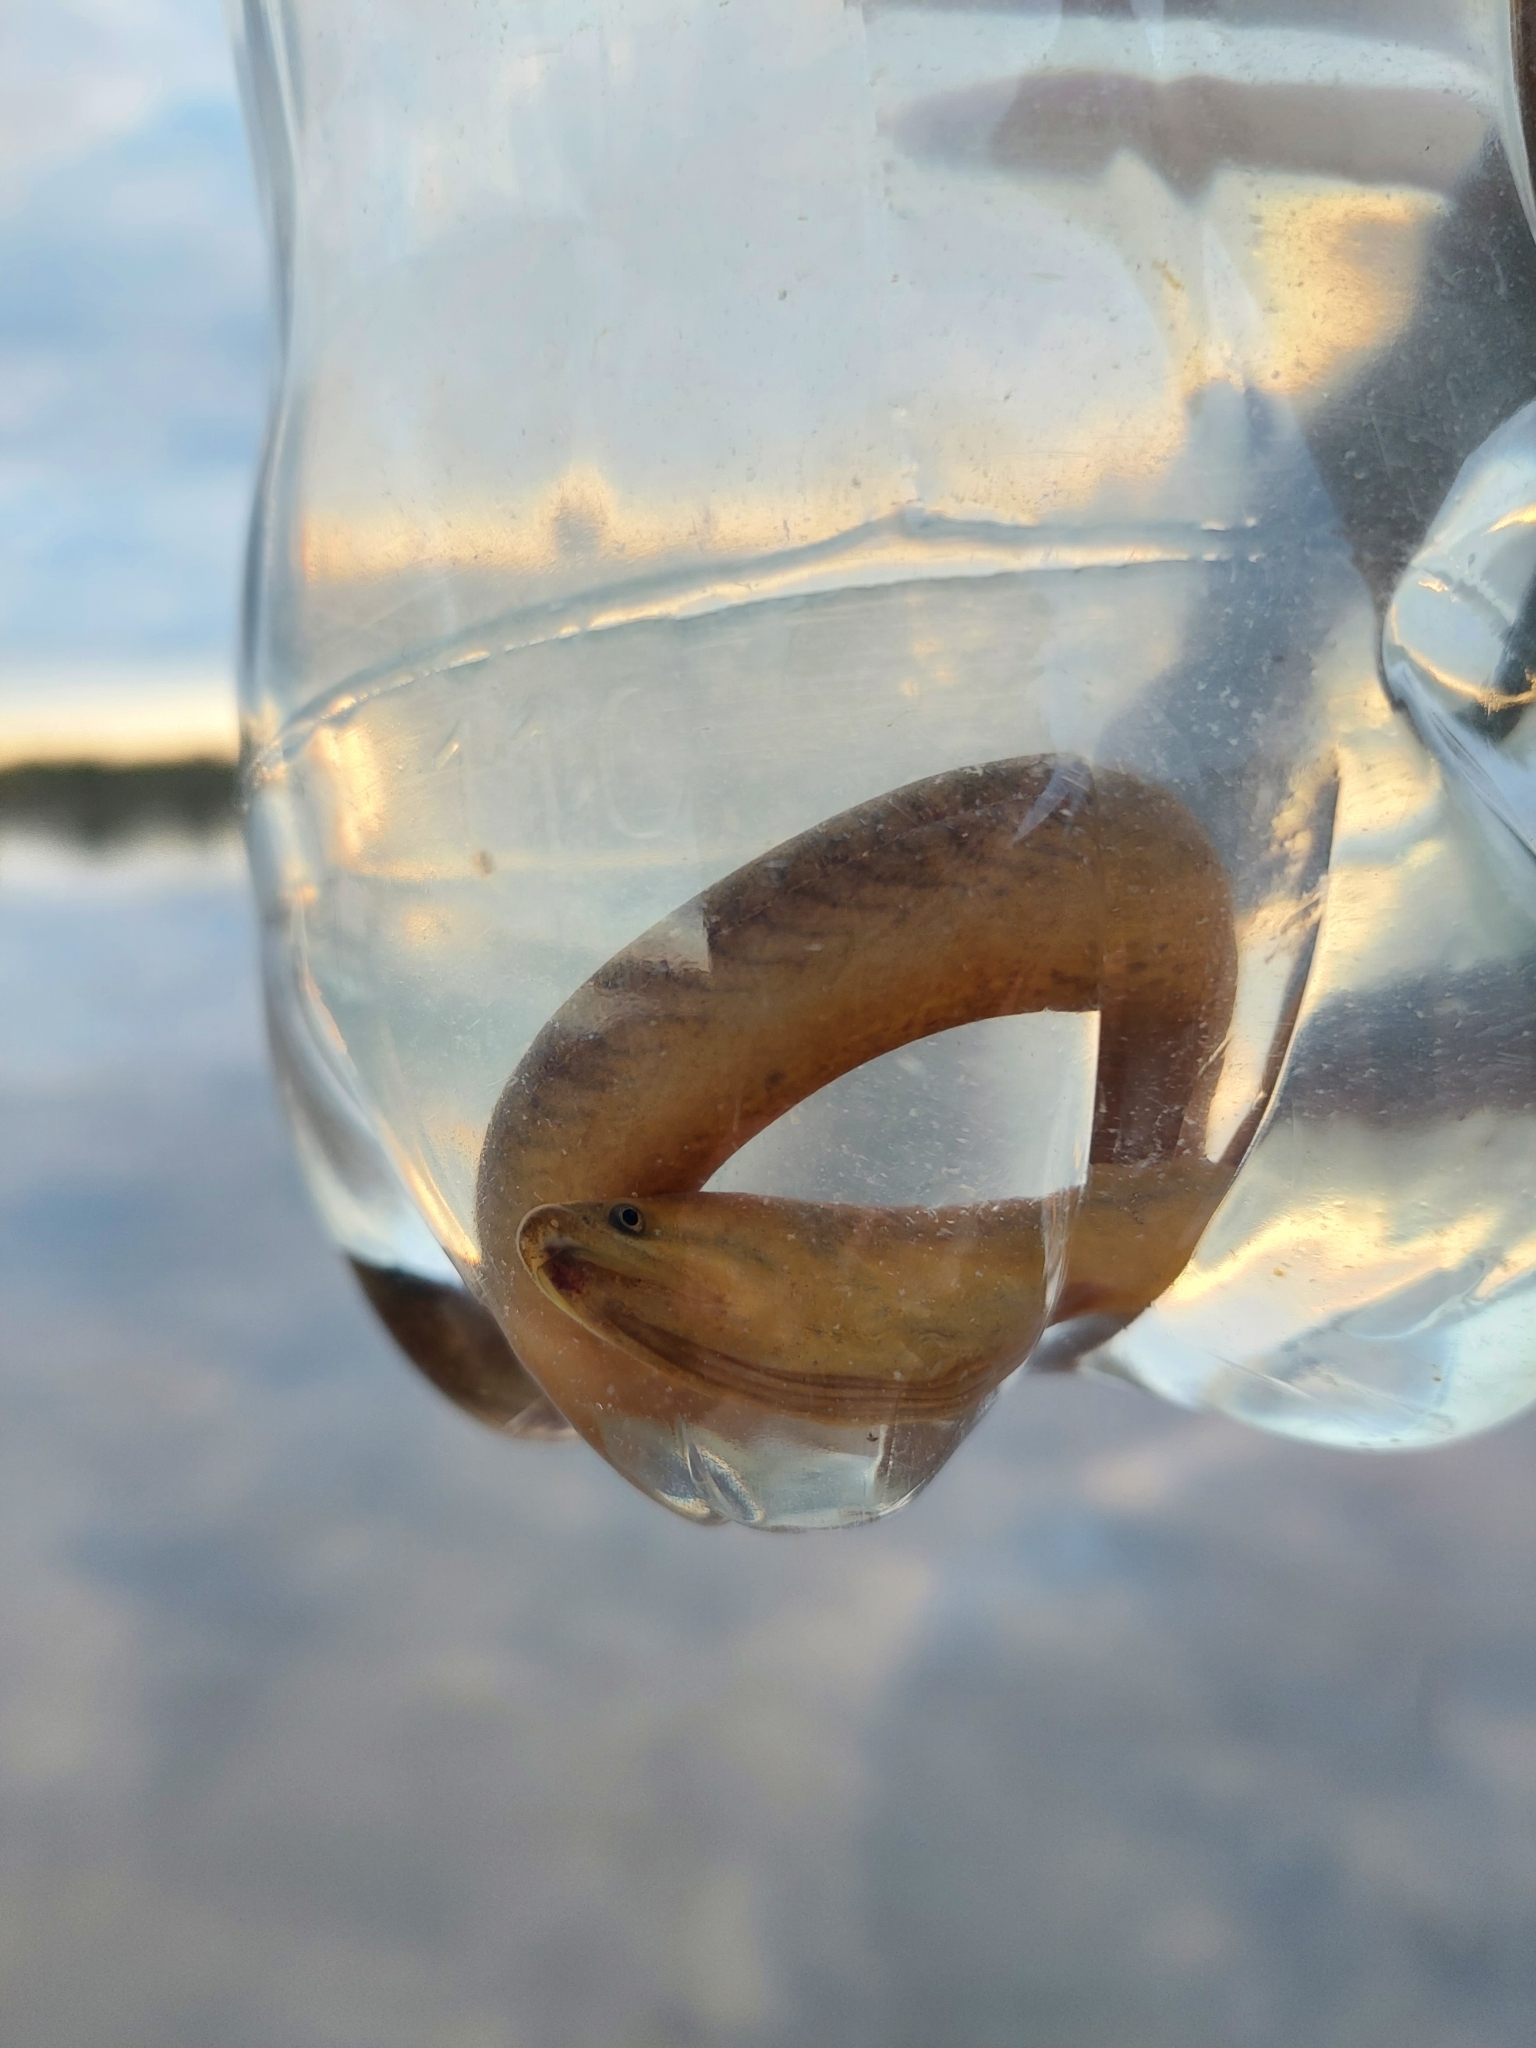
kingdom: Animalia
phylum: Chordata
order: Synbranchiformes
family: Synbranchidae
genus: Synbranchus
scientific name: Synbranchus marmoratus
